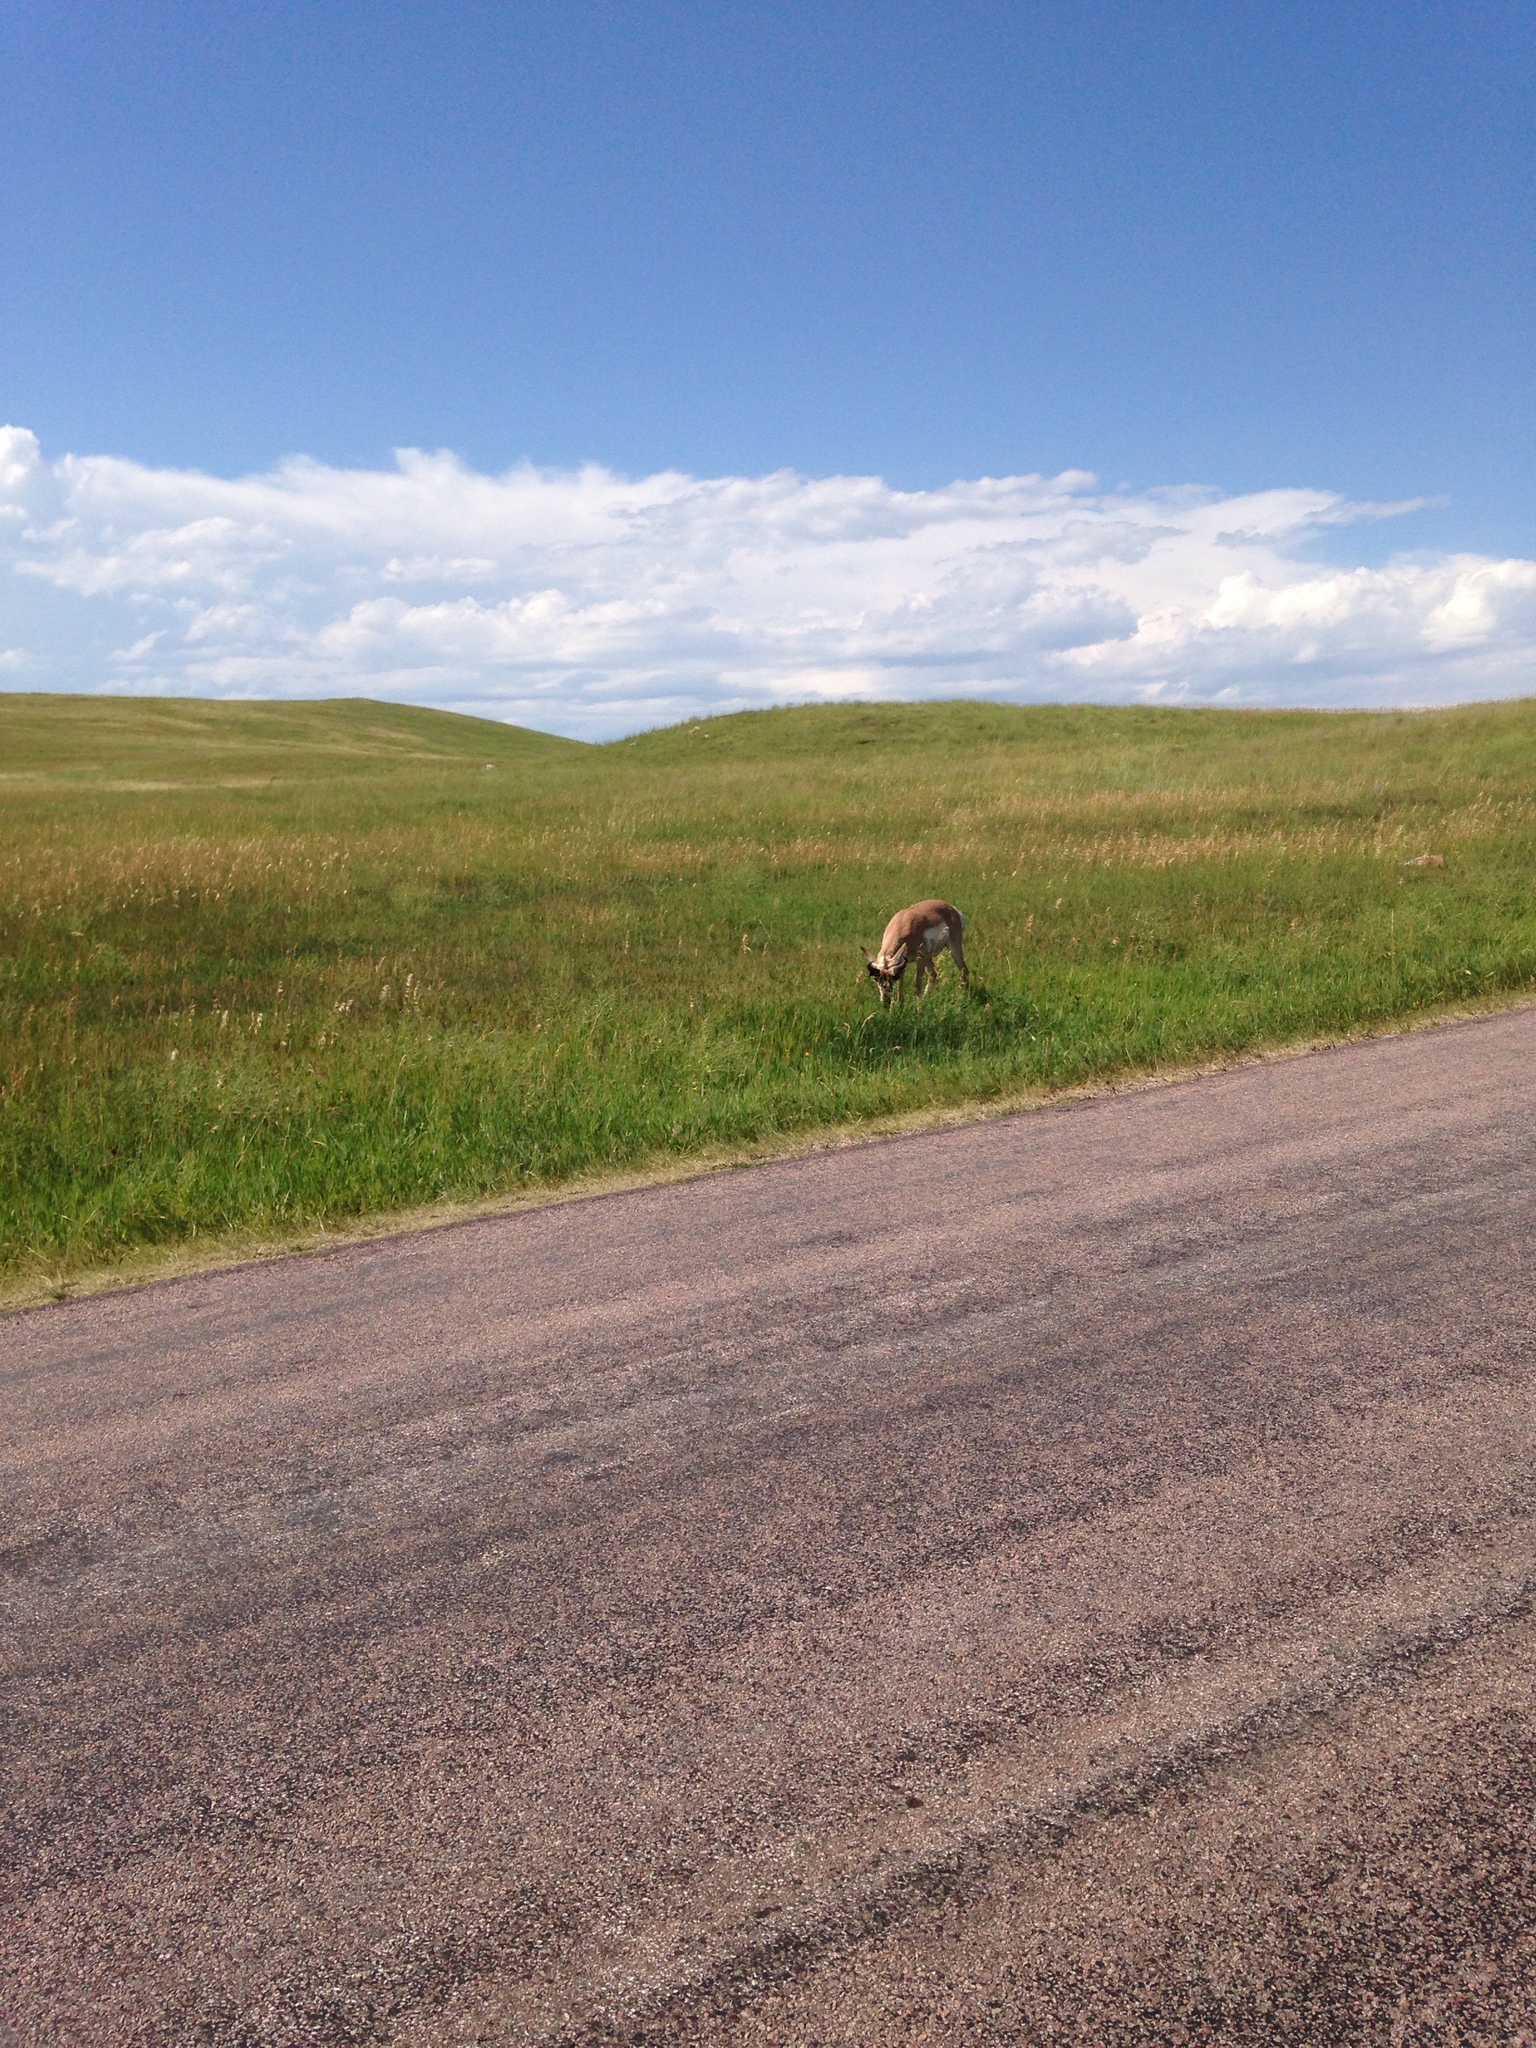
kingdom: Animalia
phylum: Chordata
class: Mammalia
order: Artiodactyla
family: Antilocapridae
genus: Antilocapra
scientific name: Antilocapra americana
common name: Pronghorn
